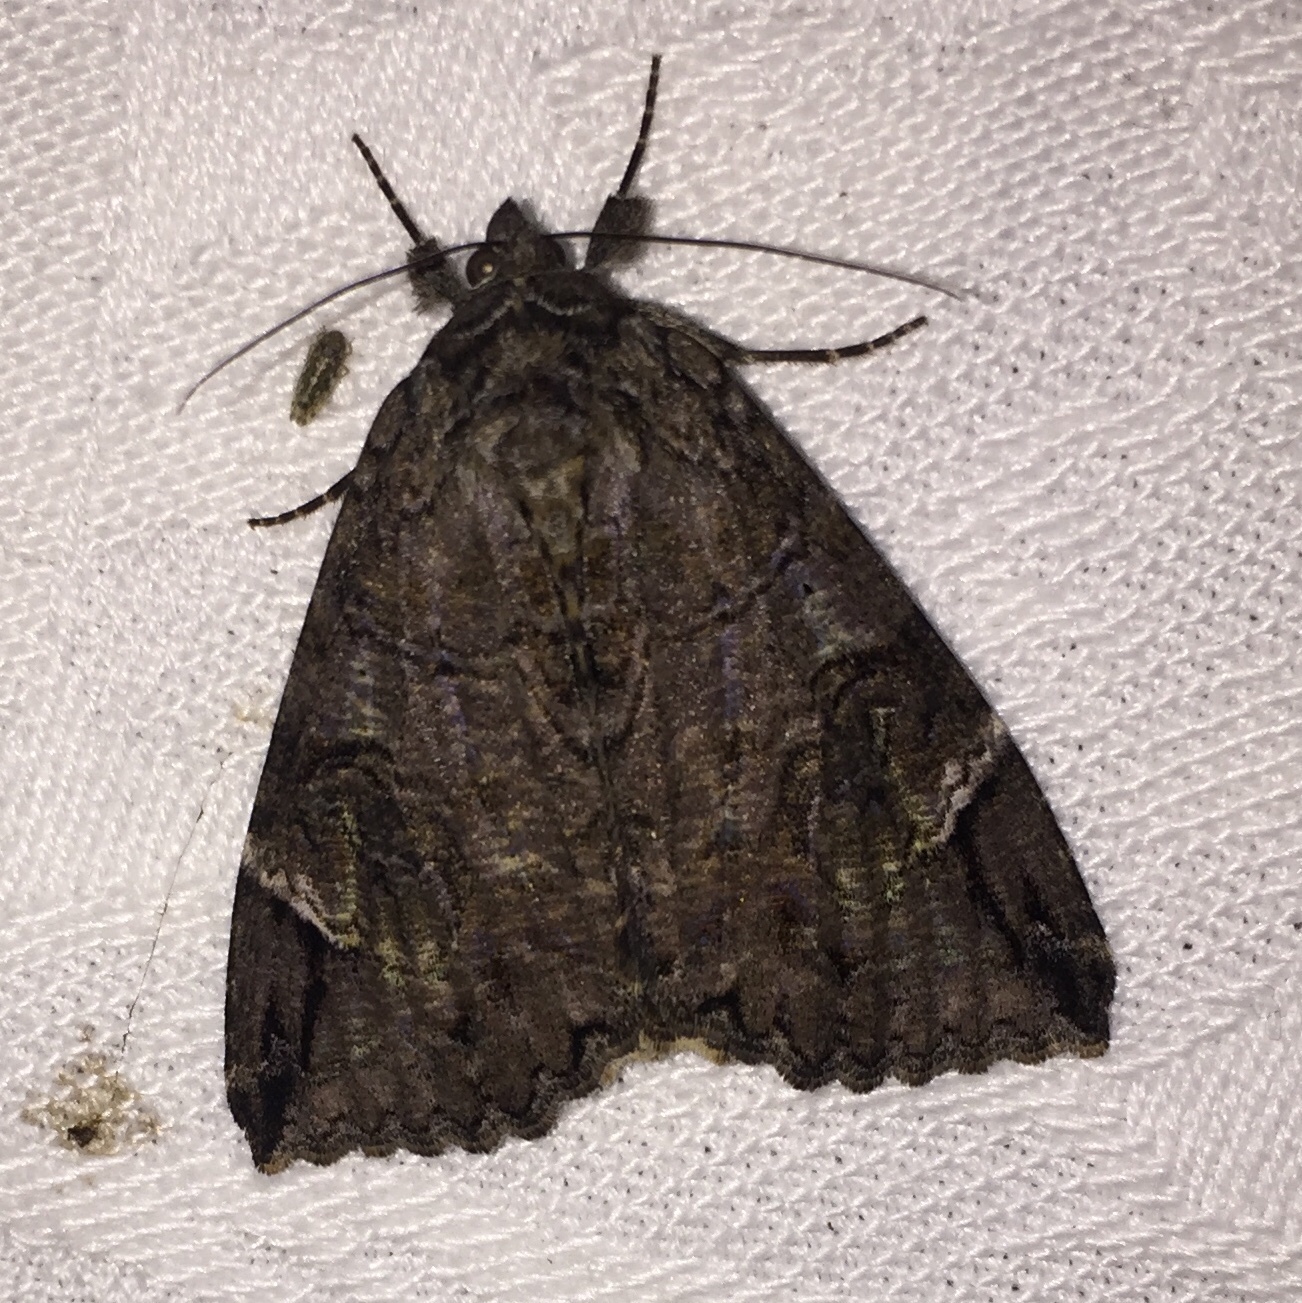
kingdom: Animalia
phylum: Arthropoda
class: Insecta
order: Lepidoptera
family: Erebidae
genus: Euparthenos
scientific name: Euparthenos nubilis
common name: Locust underwing
